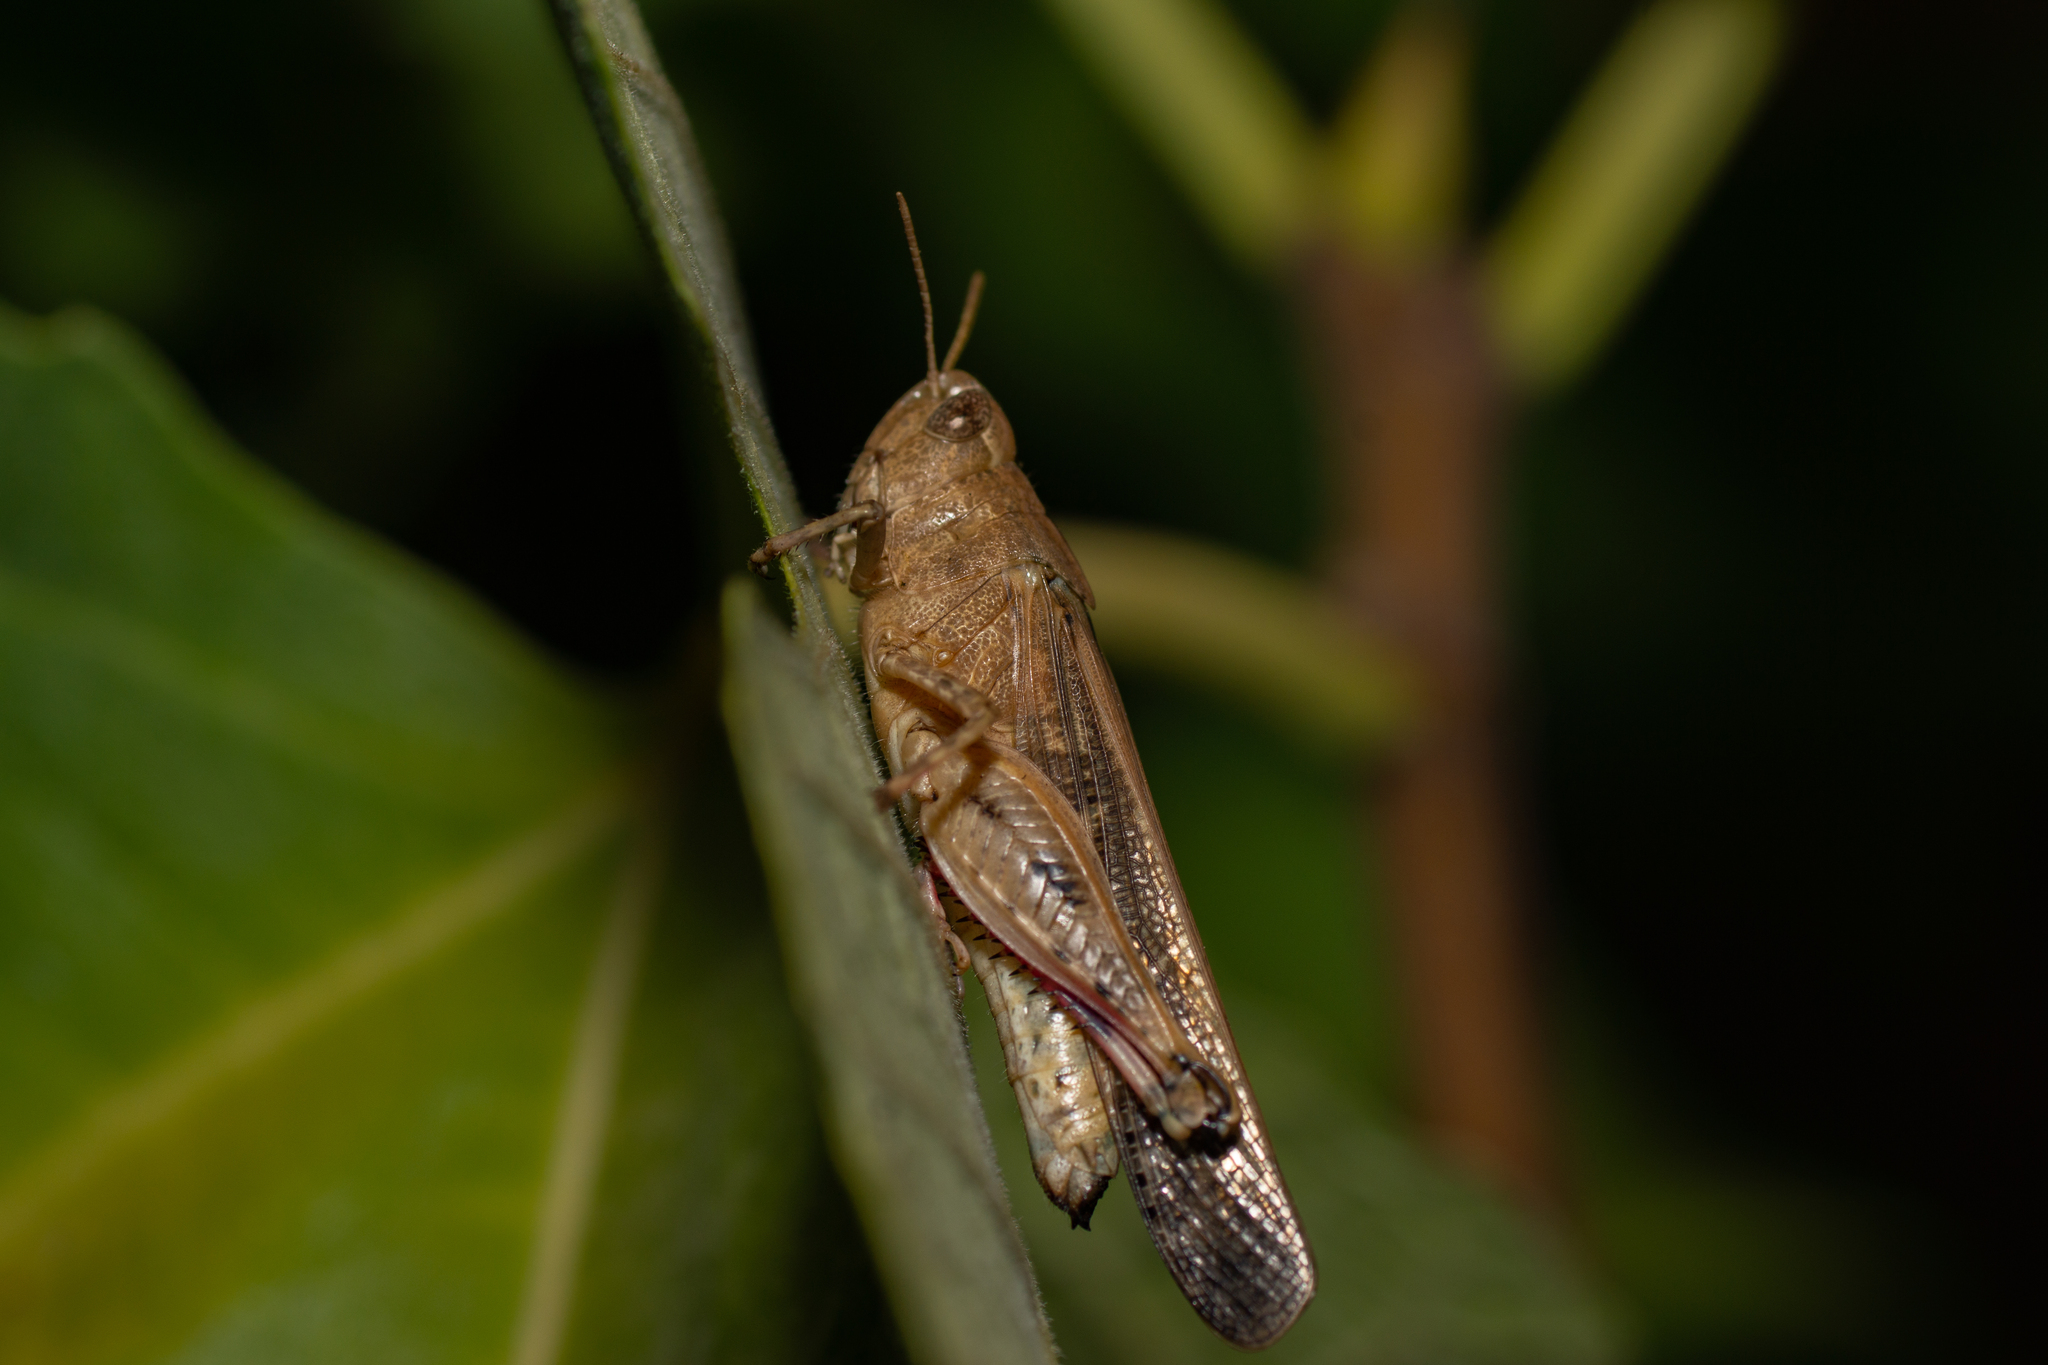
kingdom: Animalia
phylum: Arthropoda
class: Insecta
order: Orthoptera
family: Acrididae
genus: Aiolopus
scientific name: Aiolopus strepens
